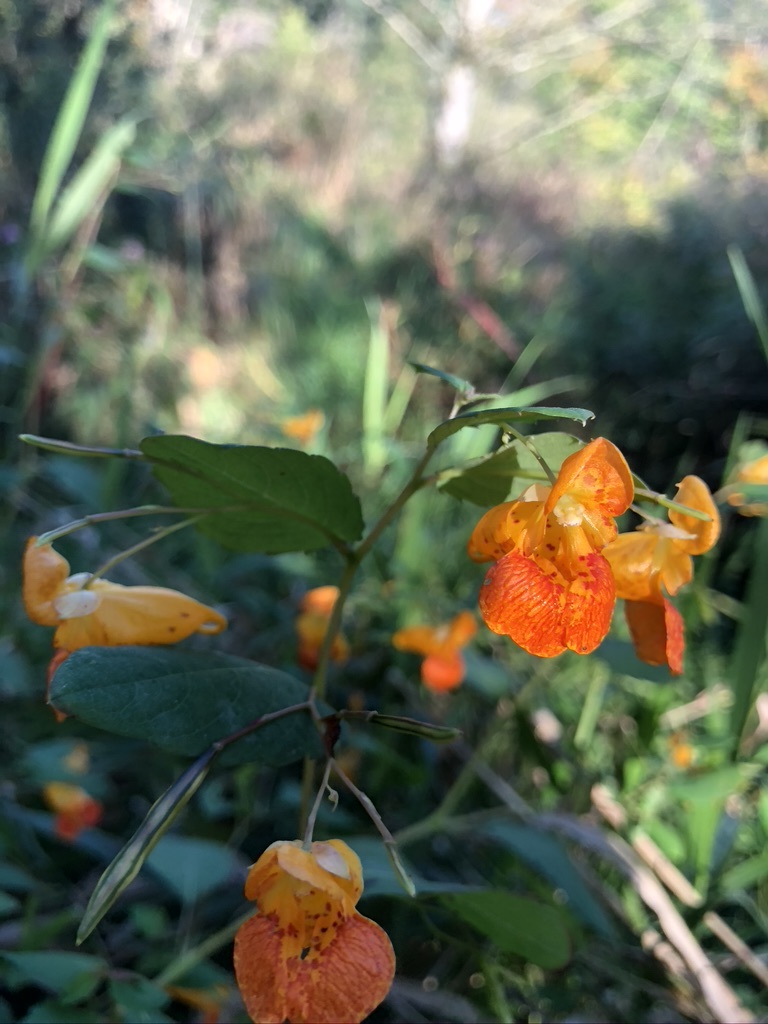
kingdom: Plantae
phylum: Tracheophyta
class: Magnoliopsida
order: Ericales
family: Balsaminaceae
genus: Impatiens
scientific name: Impatiens capensis
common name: Orange balsam
